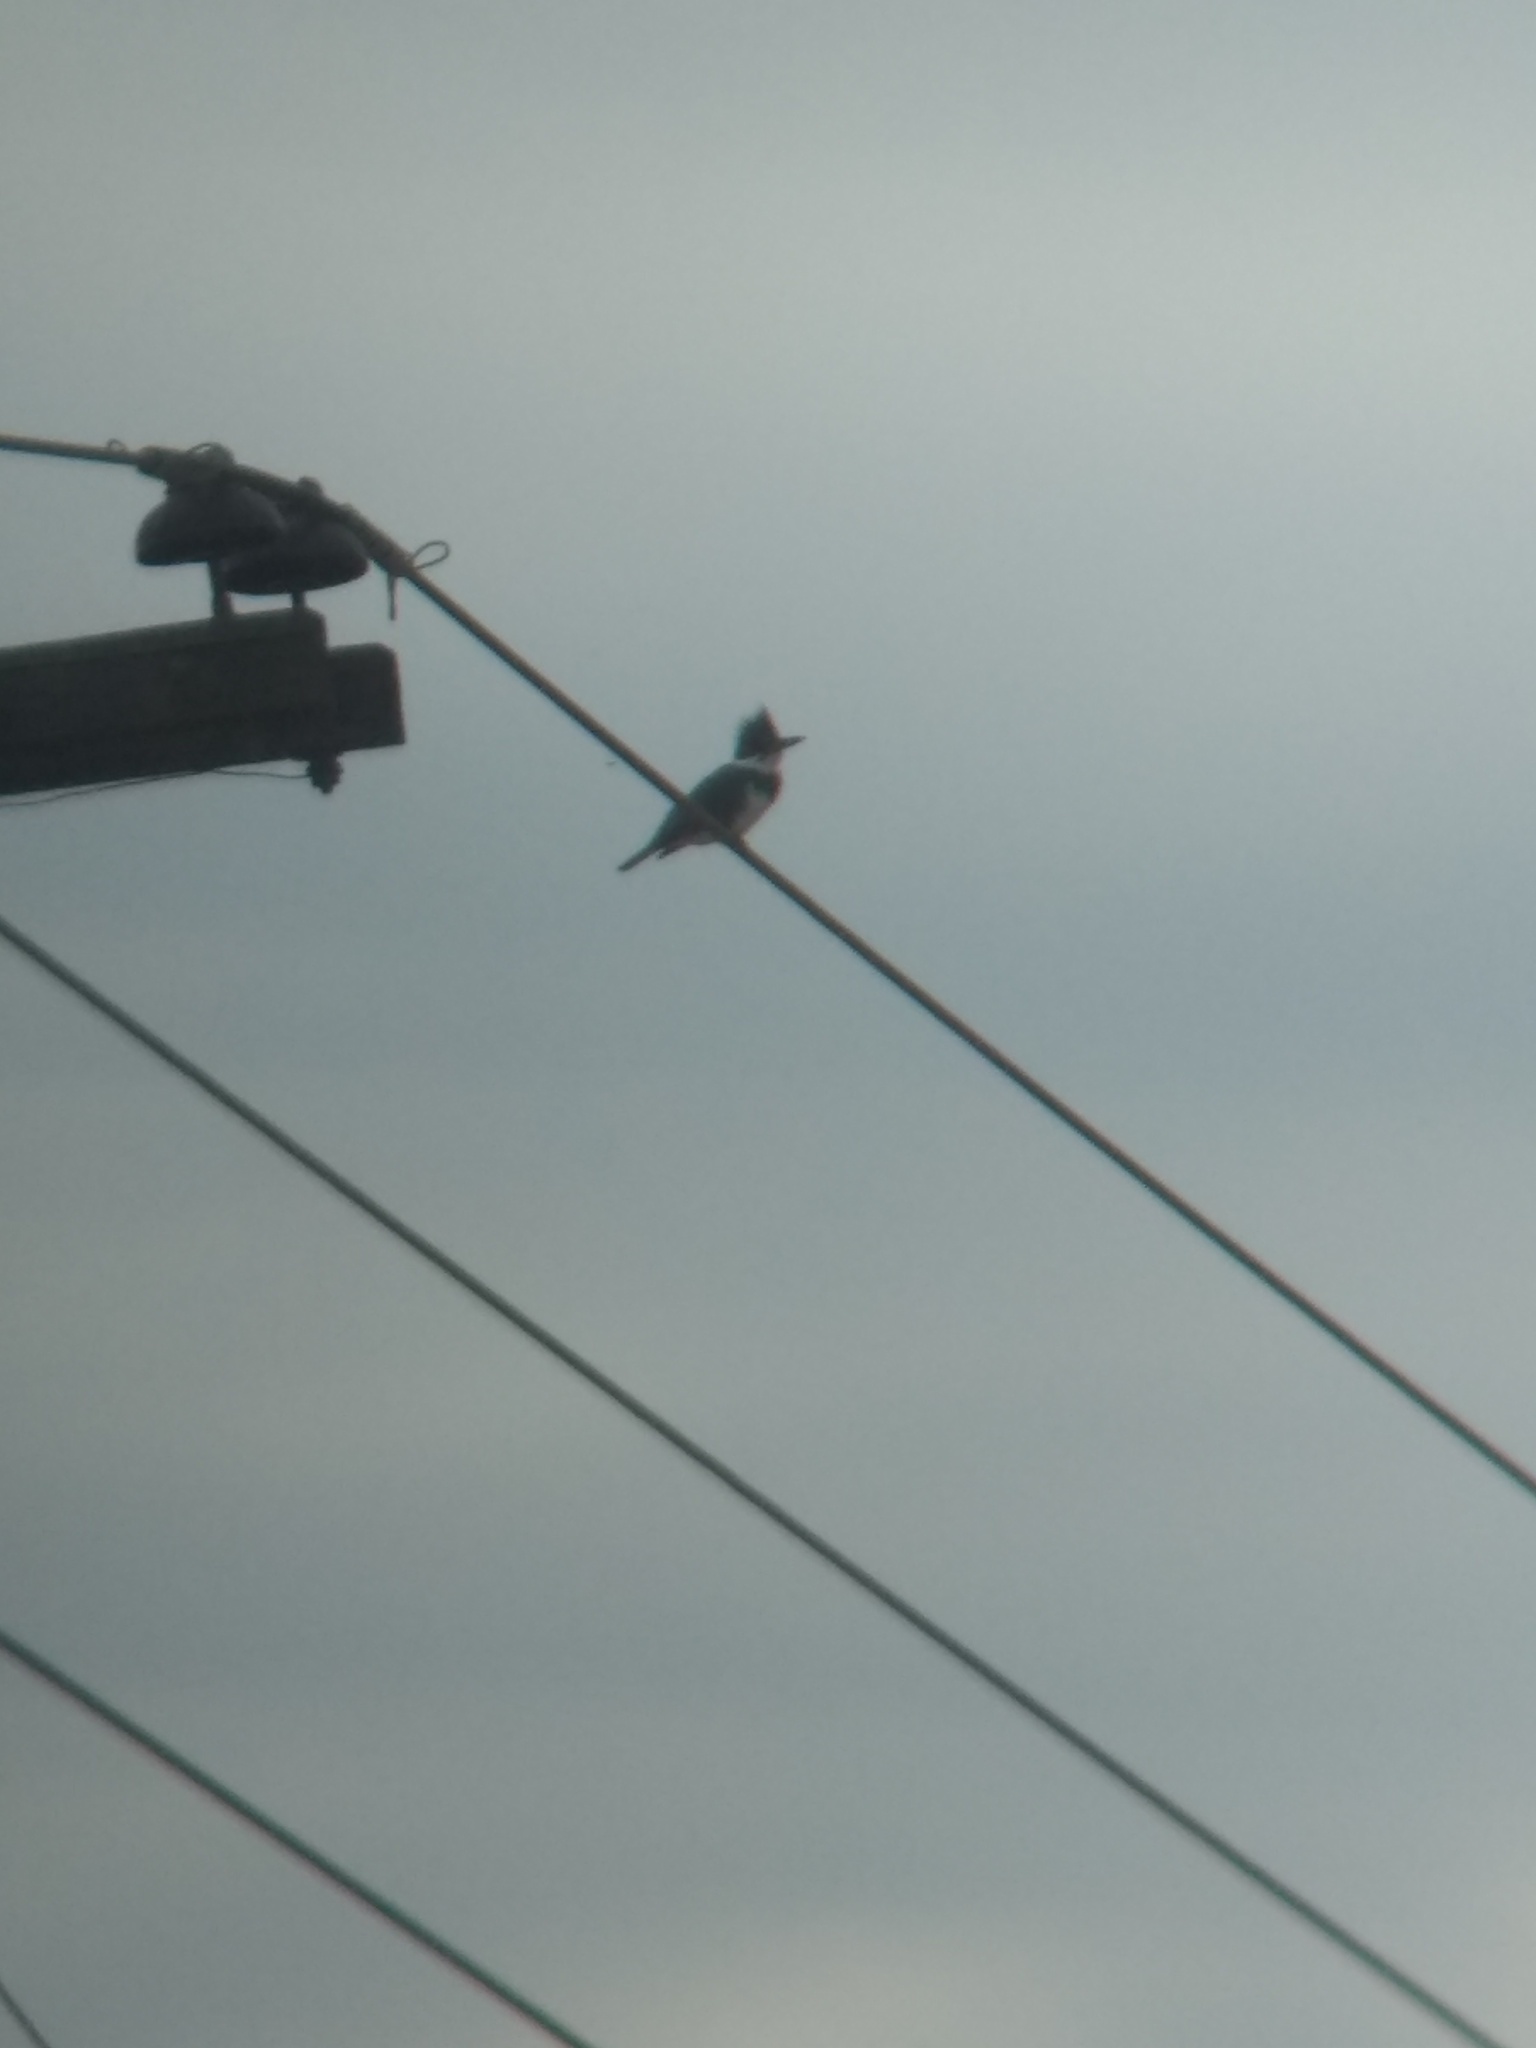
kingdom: Animalia
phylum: Chordata
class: Aves
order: Coraciiformes
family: Alcedinidae
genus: Megaceryle
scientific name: Megaceryle alcyon
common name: Belted kingfisher
